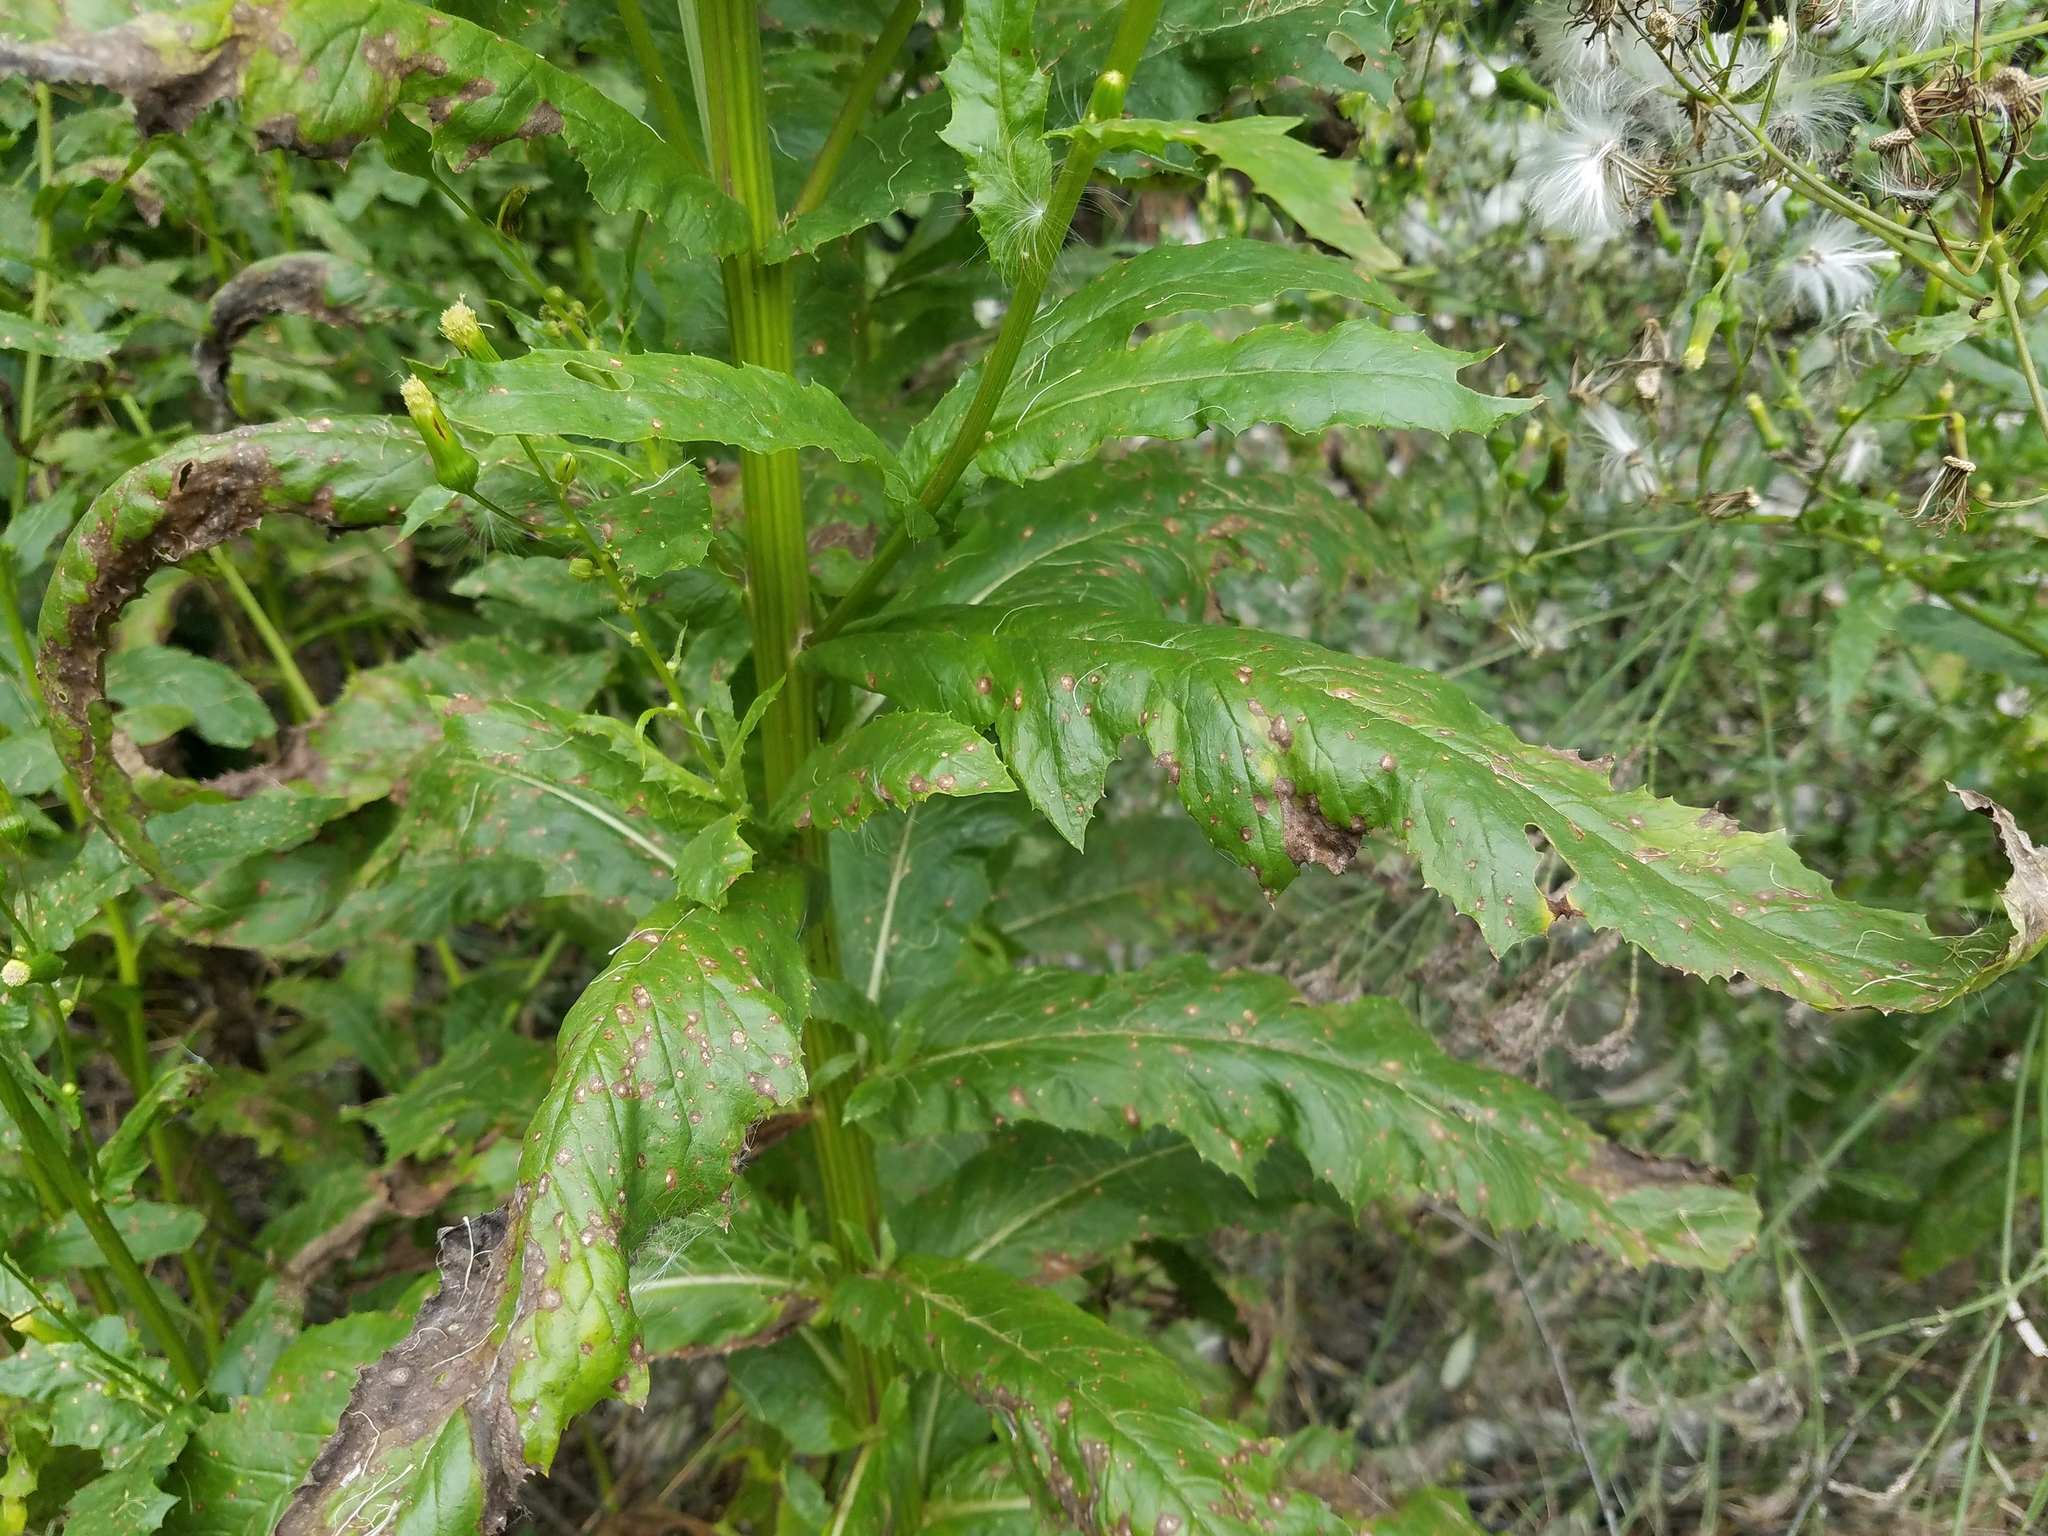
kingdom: Plantae
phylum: Tracheophyta
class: Magnoliopsida
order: Asterales
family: Asteraceae
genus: Erechtites
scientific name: Erechtites hieraciifolius
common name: American burnweed
